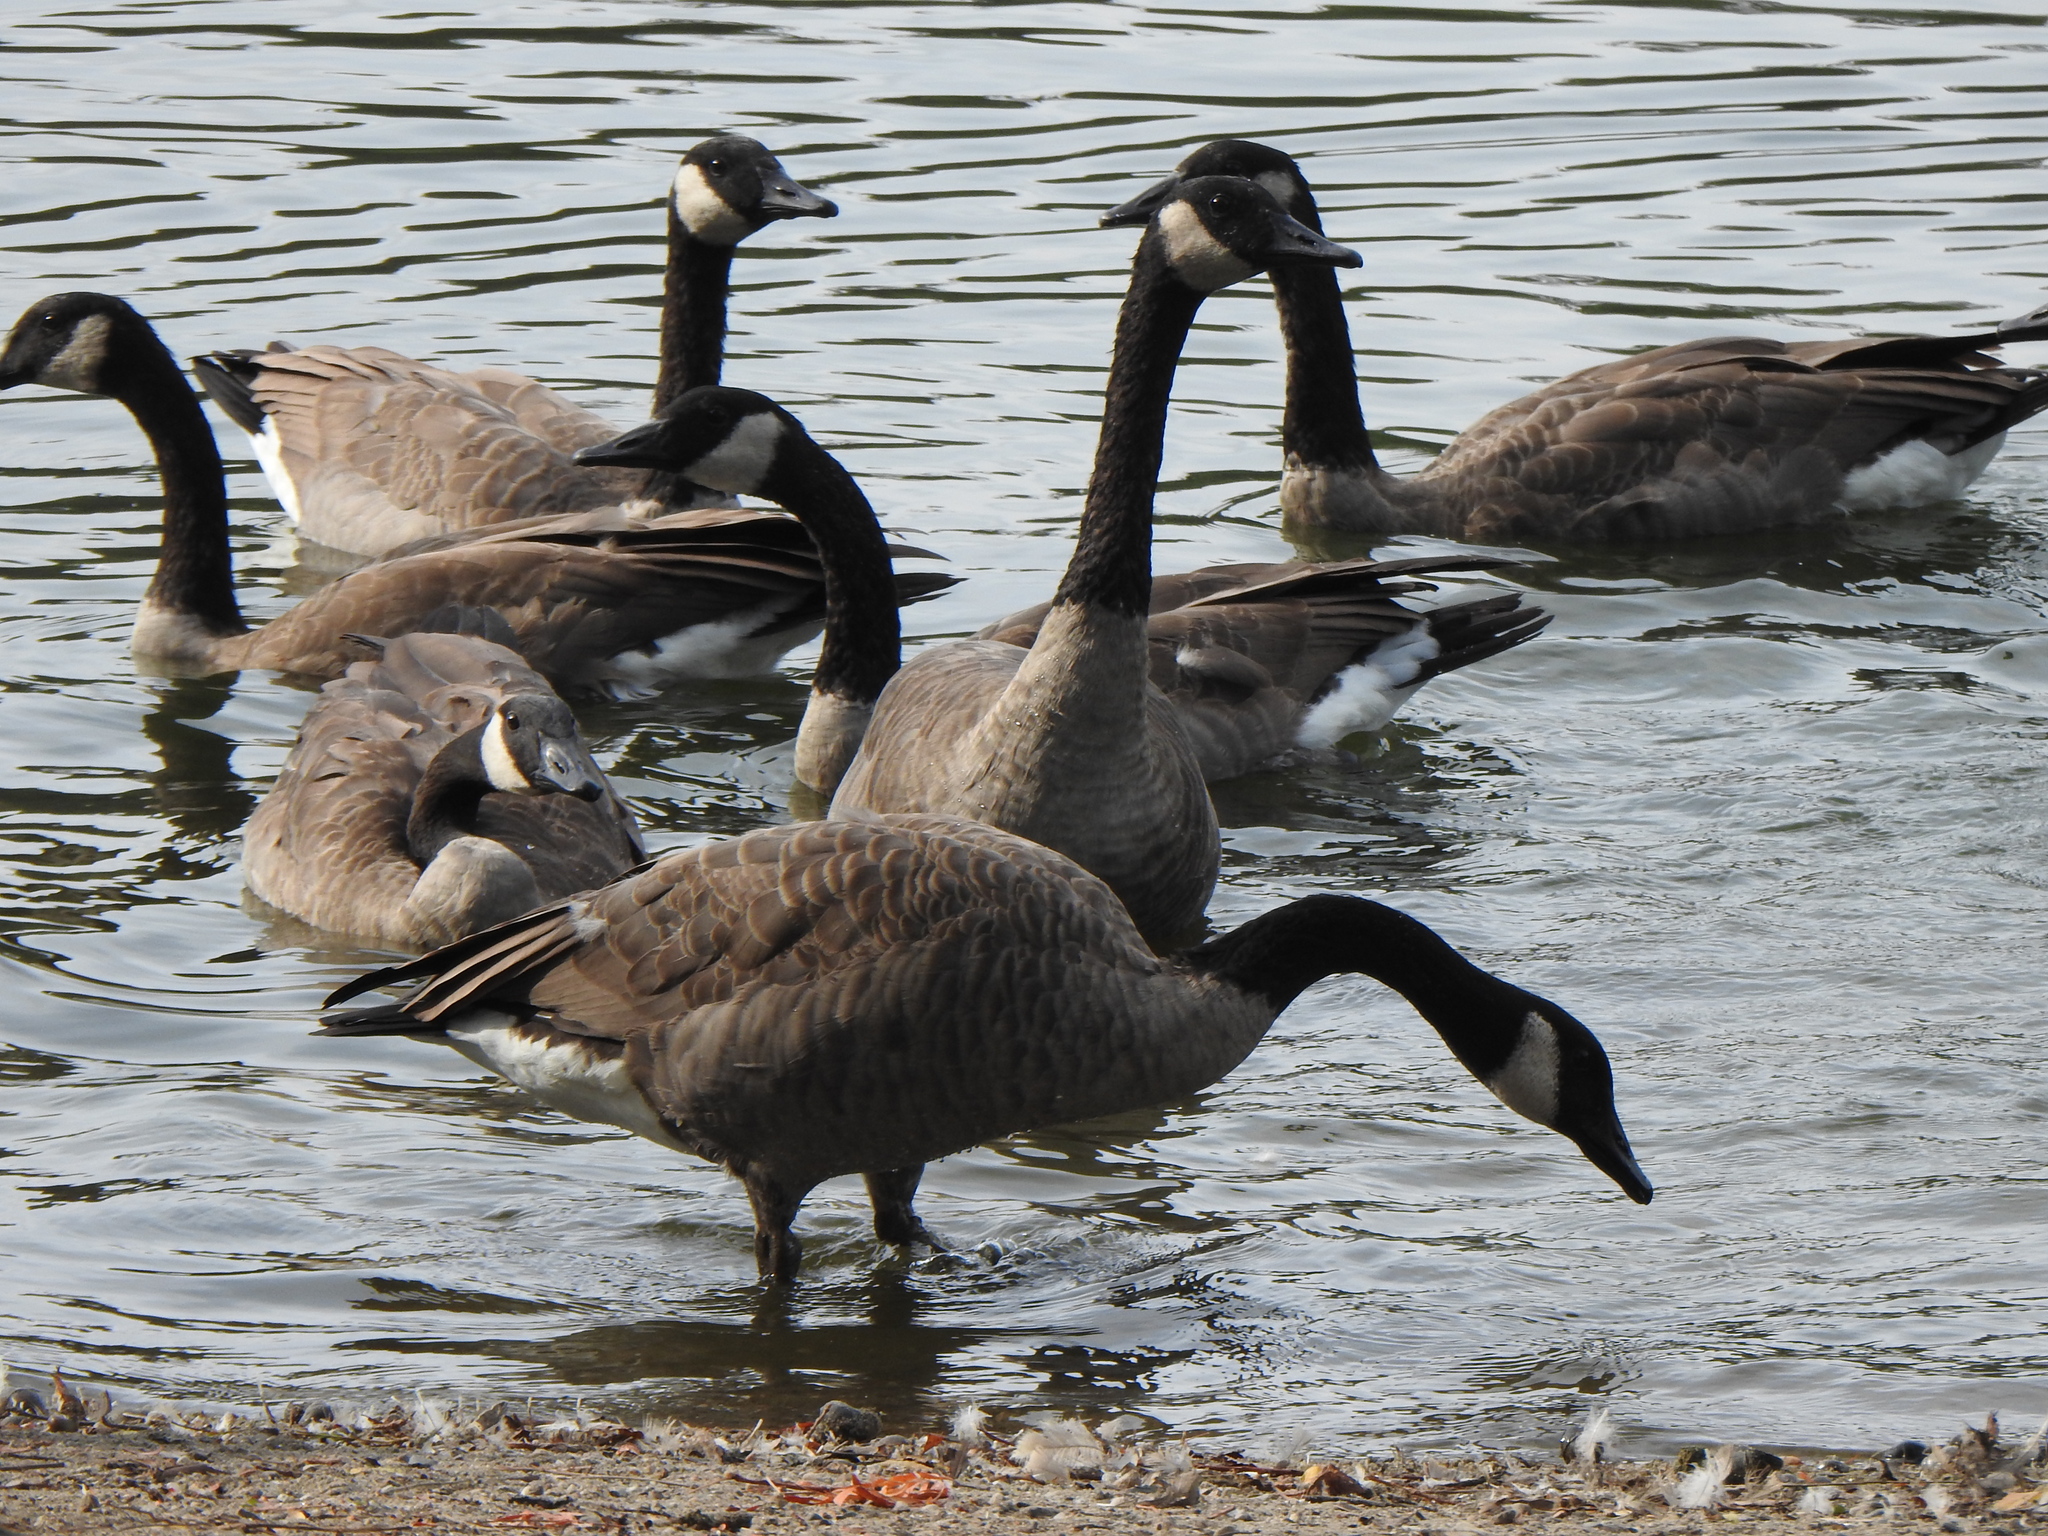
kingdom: Animalia
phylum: Chordata
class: Aves
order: Anseriformes
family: Anatidae
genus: Branta
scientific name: Branta canadensis
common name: Canada goose
